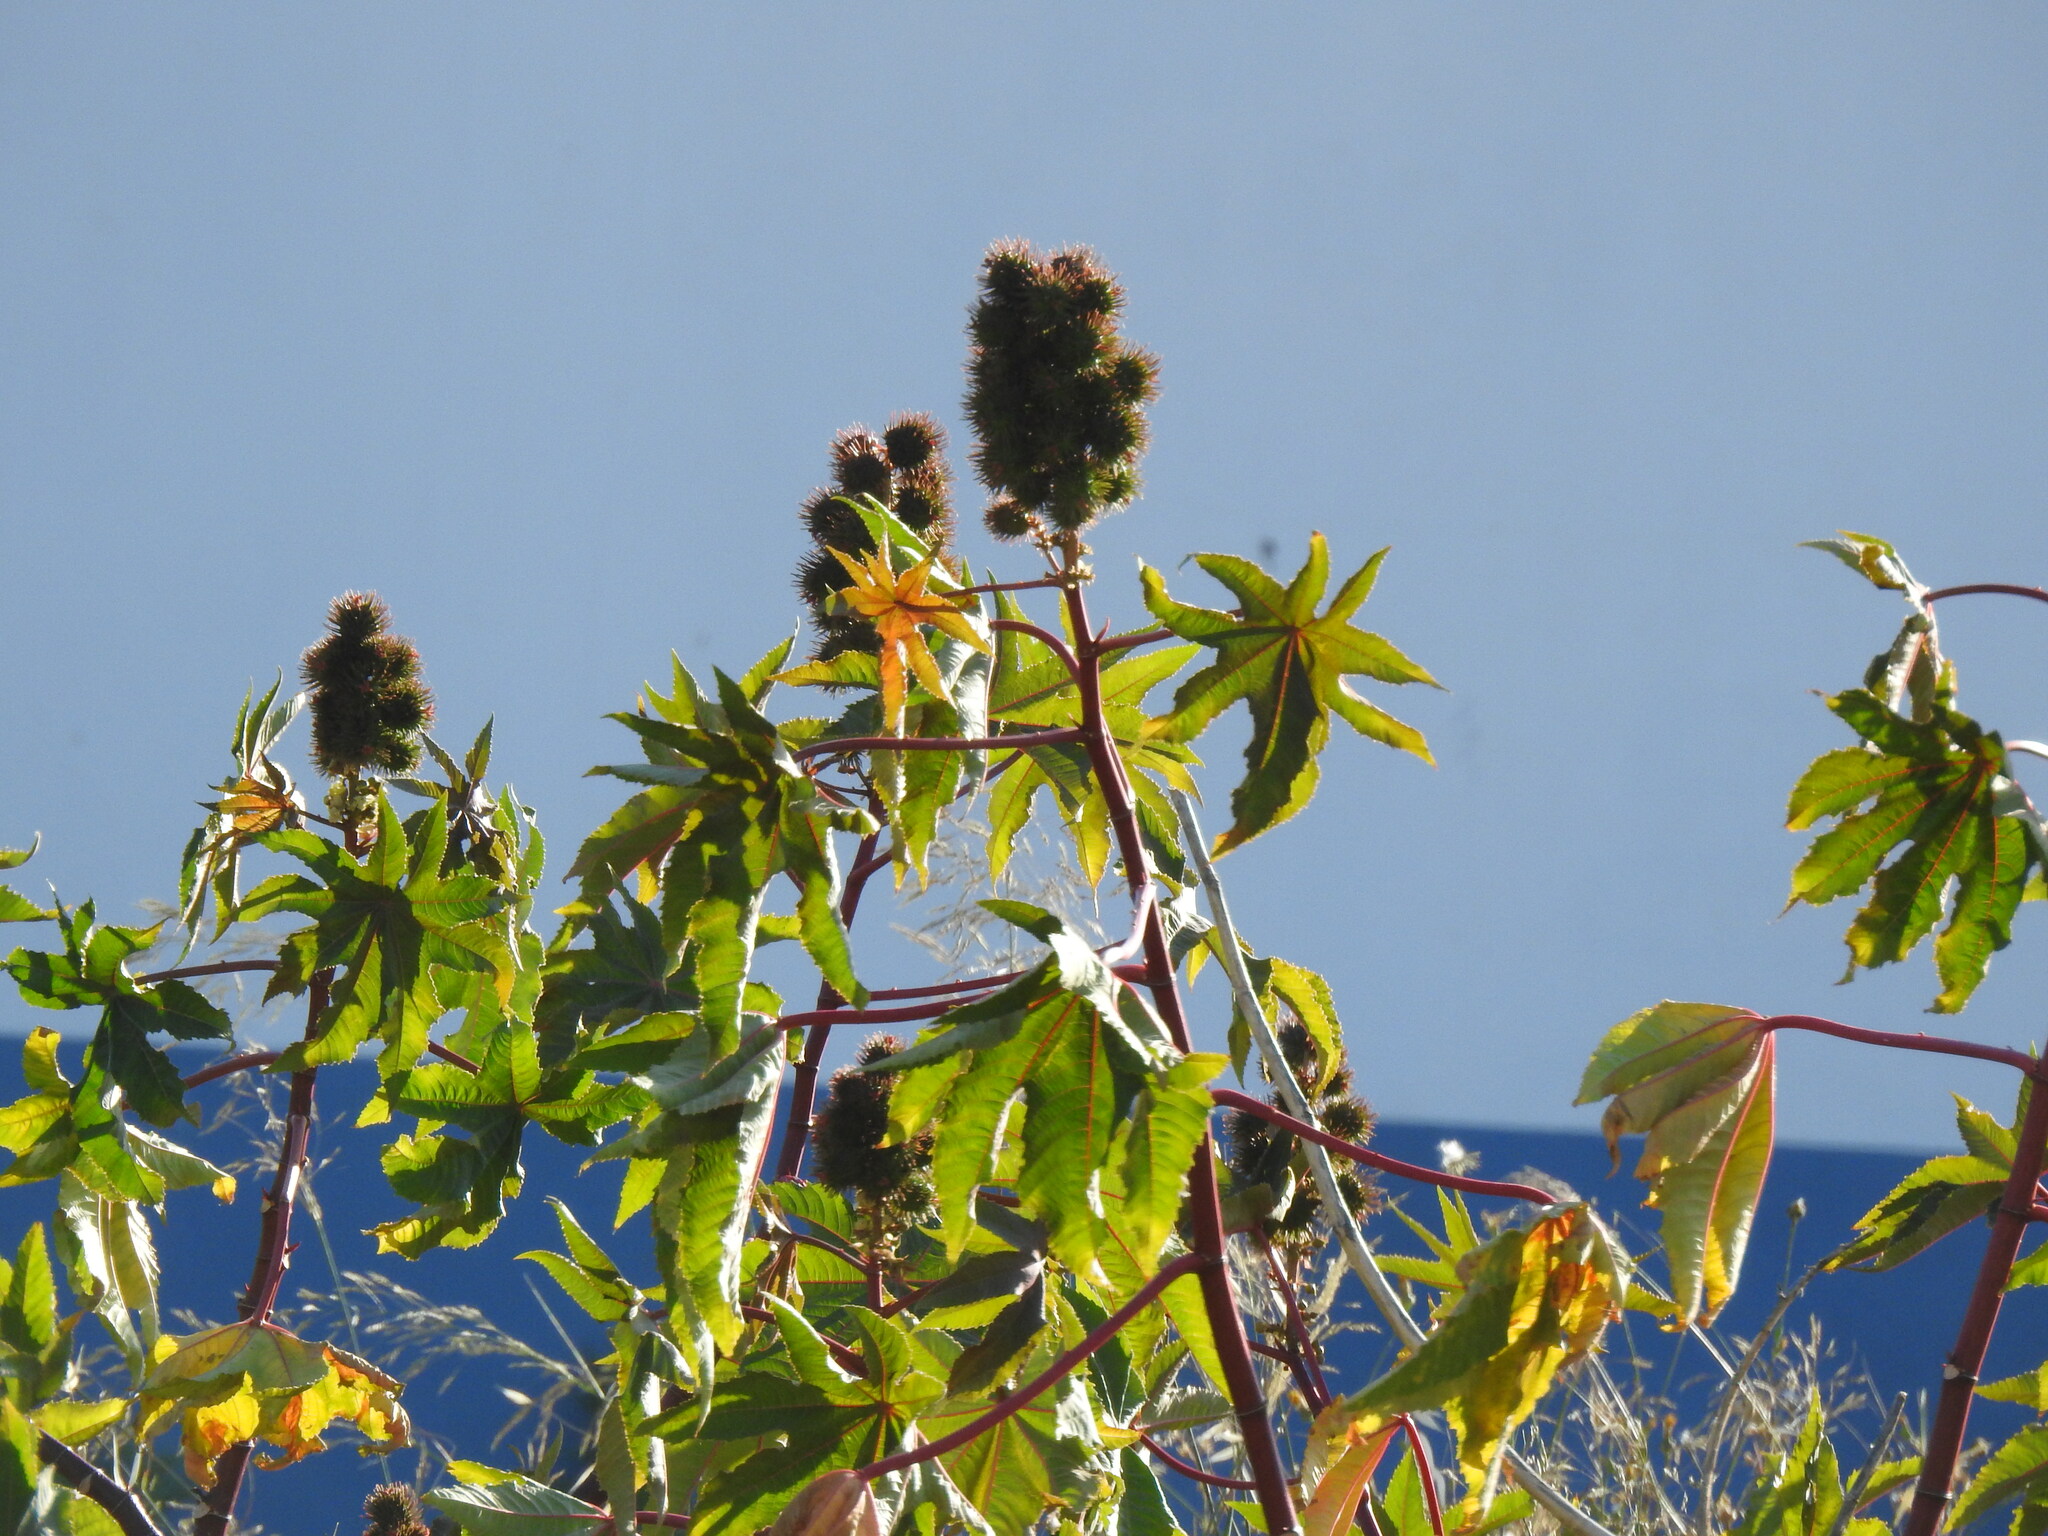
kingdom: Plantae
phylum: Tracheophyta
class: Magnoliopsida
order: Malpighiales
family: Euphorbiaceae
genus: Ricinus
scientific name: Ricinus communis
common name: Castor-oil-plant
